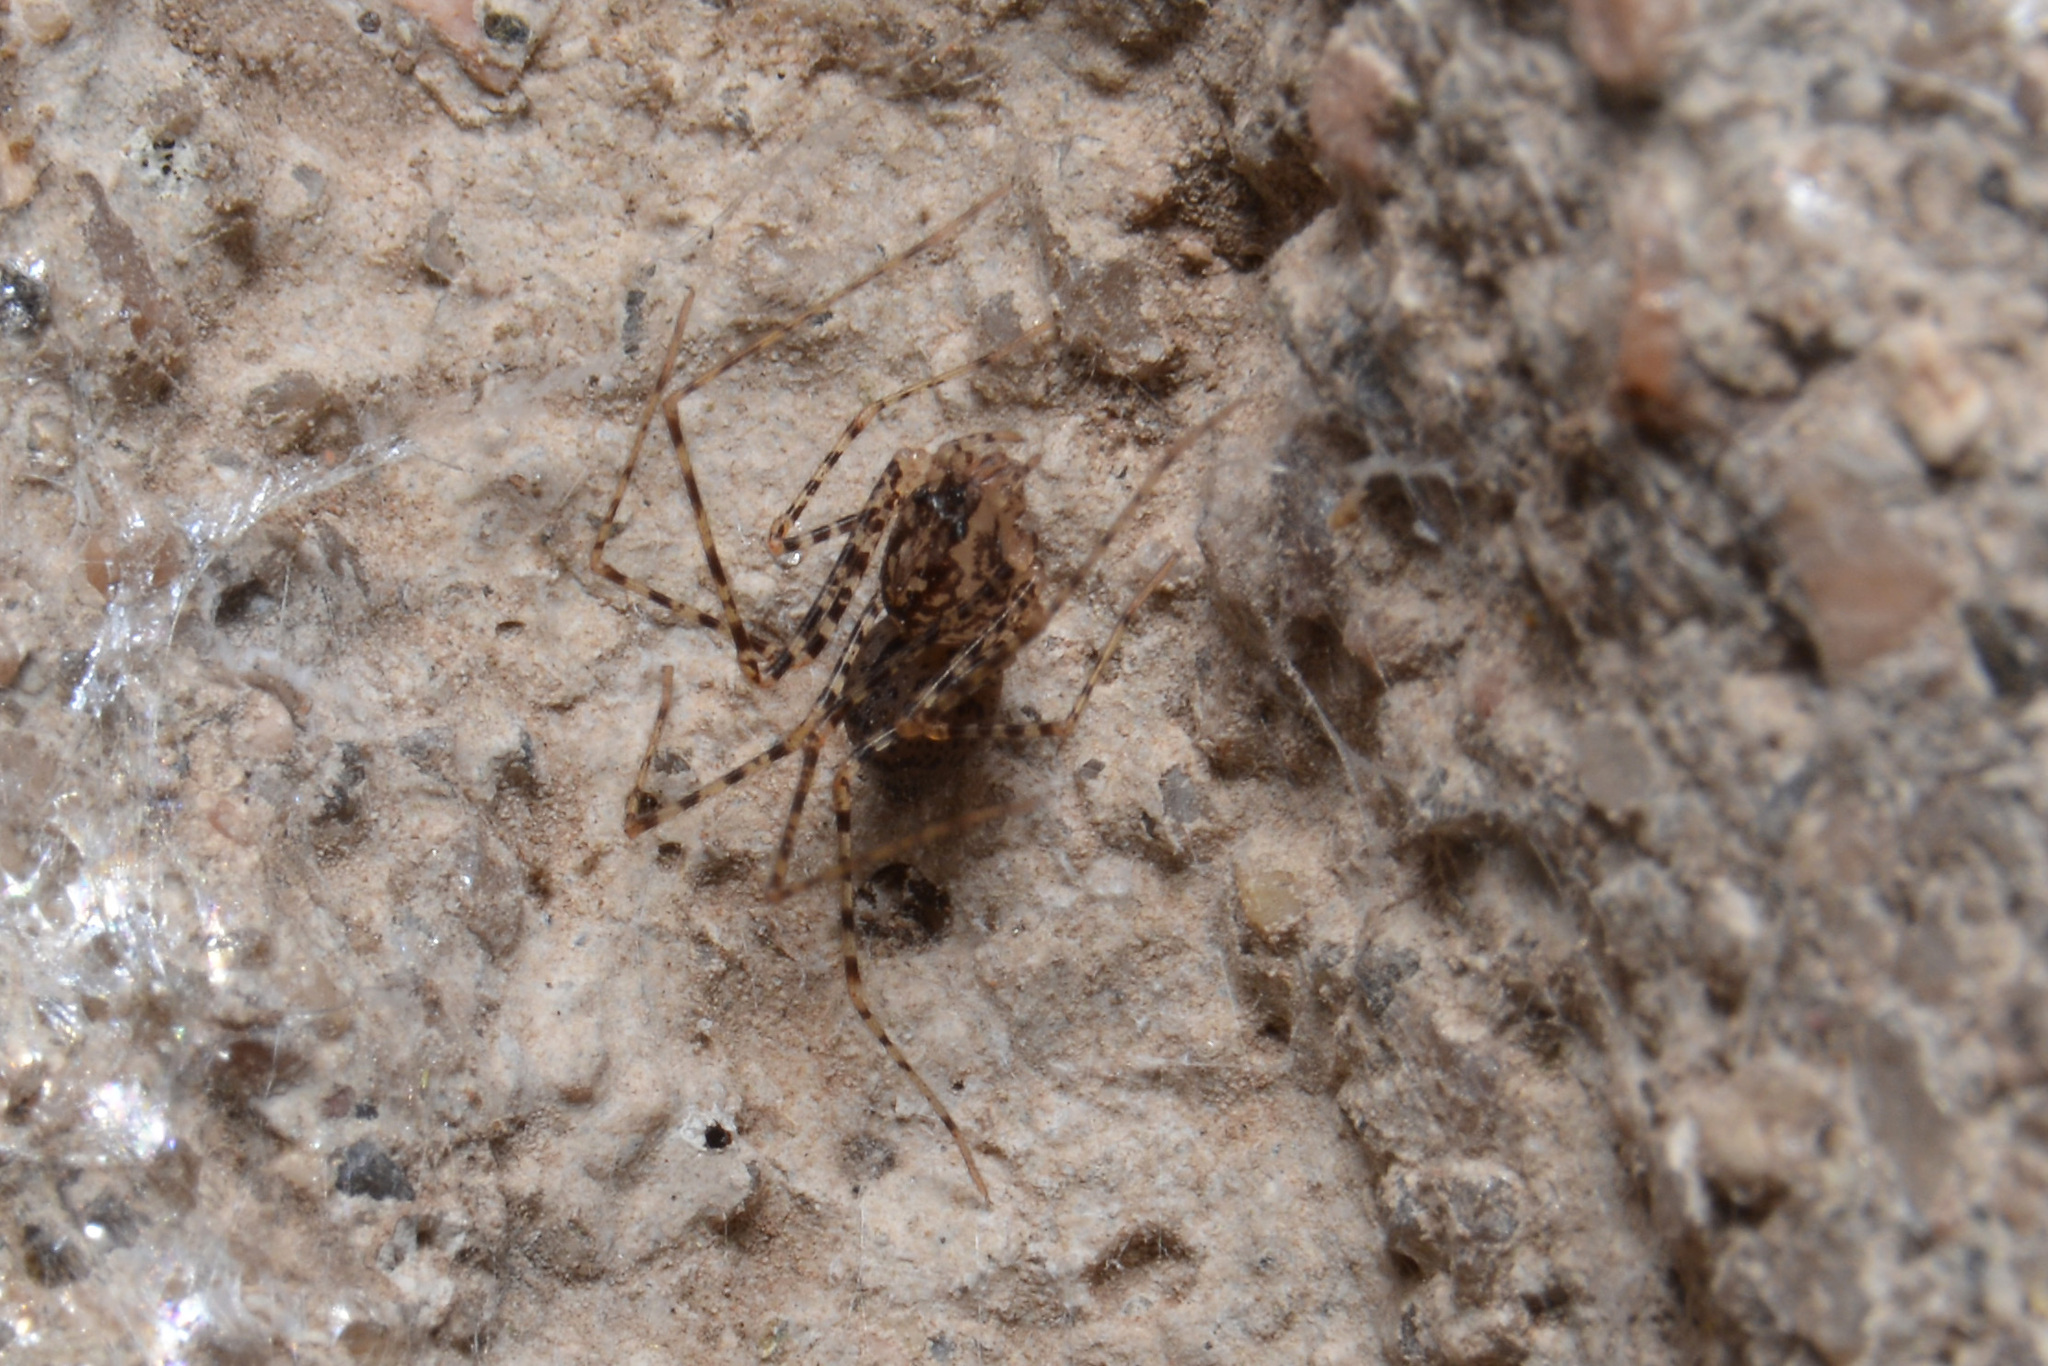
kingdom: Animalia
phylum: Arthropoda
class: Arachnida
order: Araneae
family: Scytodidae
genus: Scytodes
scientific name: Scytodes globula
